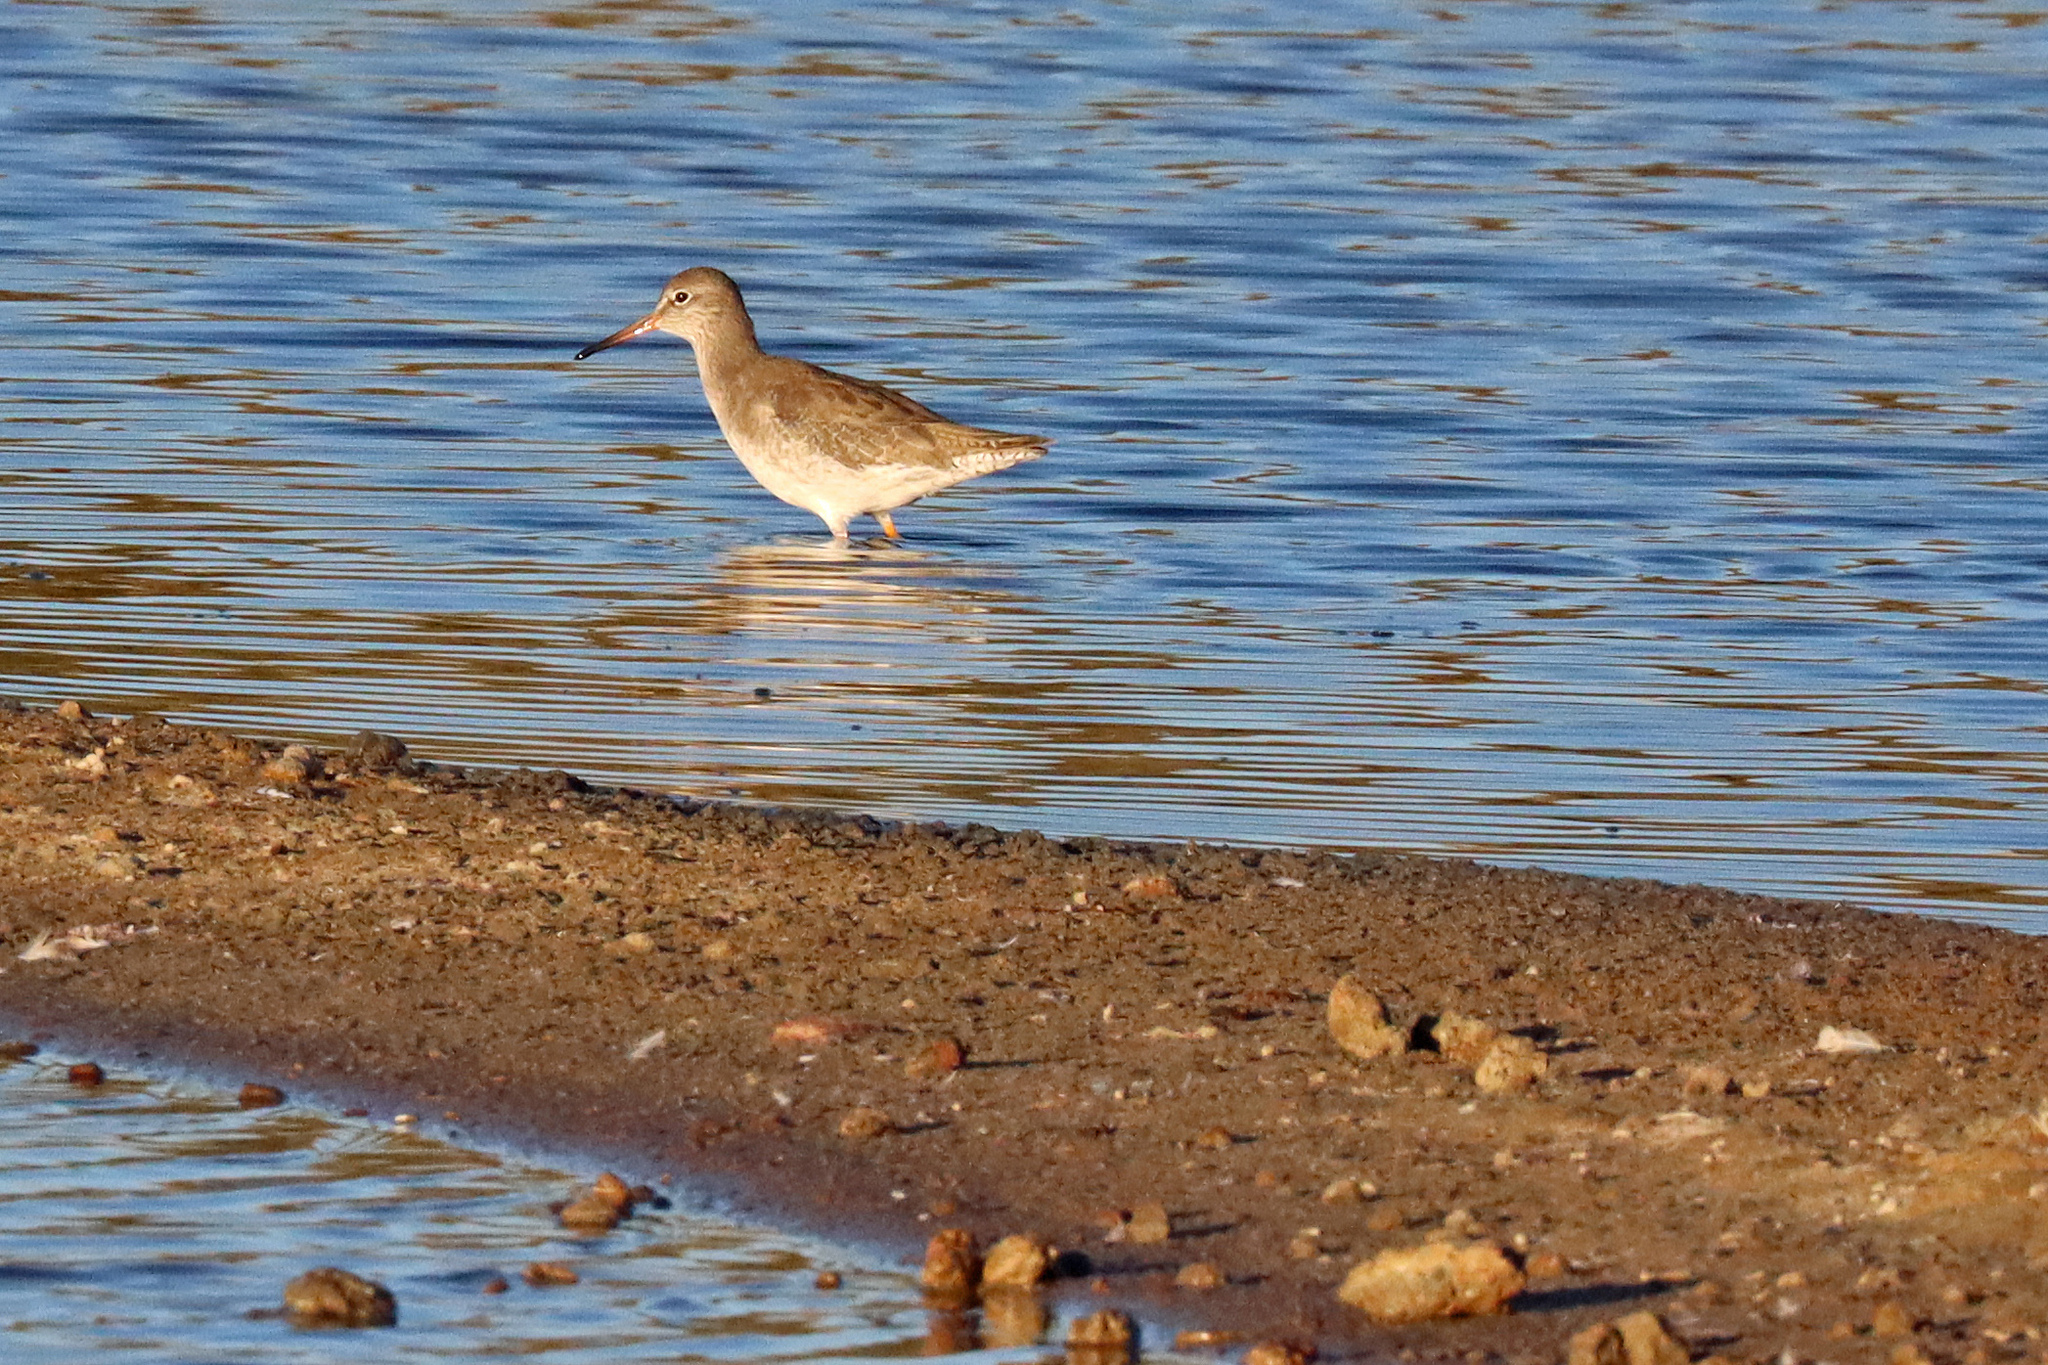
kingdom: Animalia
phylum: Chordata
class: Aves
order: Charadriiformes
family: Scolopacidae
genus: Tringa
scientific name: Tringa totanus
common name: Common redshank
